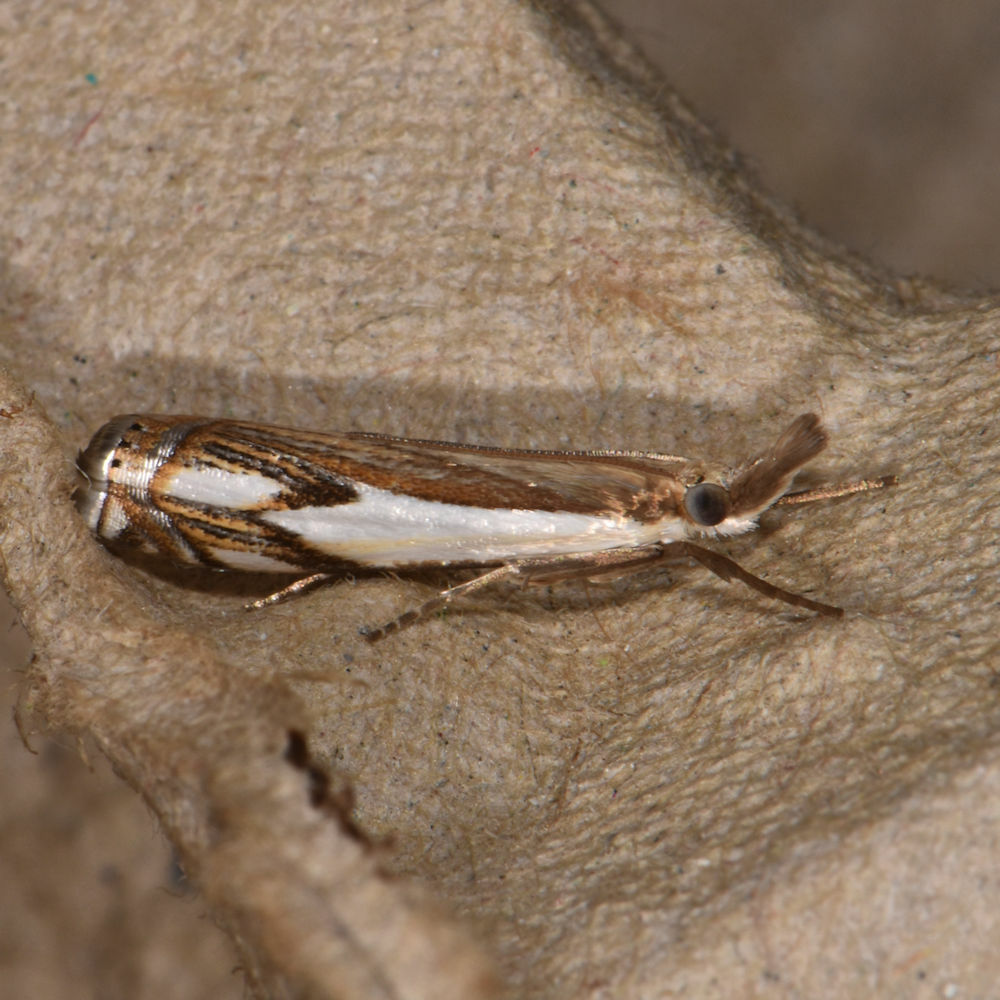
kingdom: Animalia
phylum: Arthropoda
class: Insecta
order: Lepidoptera
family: Crambidae
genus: Crambus
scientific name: Crambus agitatellus
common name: Double-banded grass-veneer
